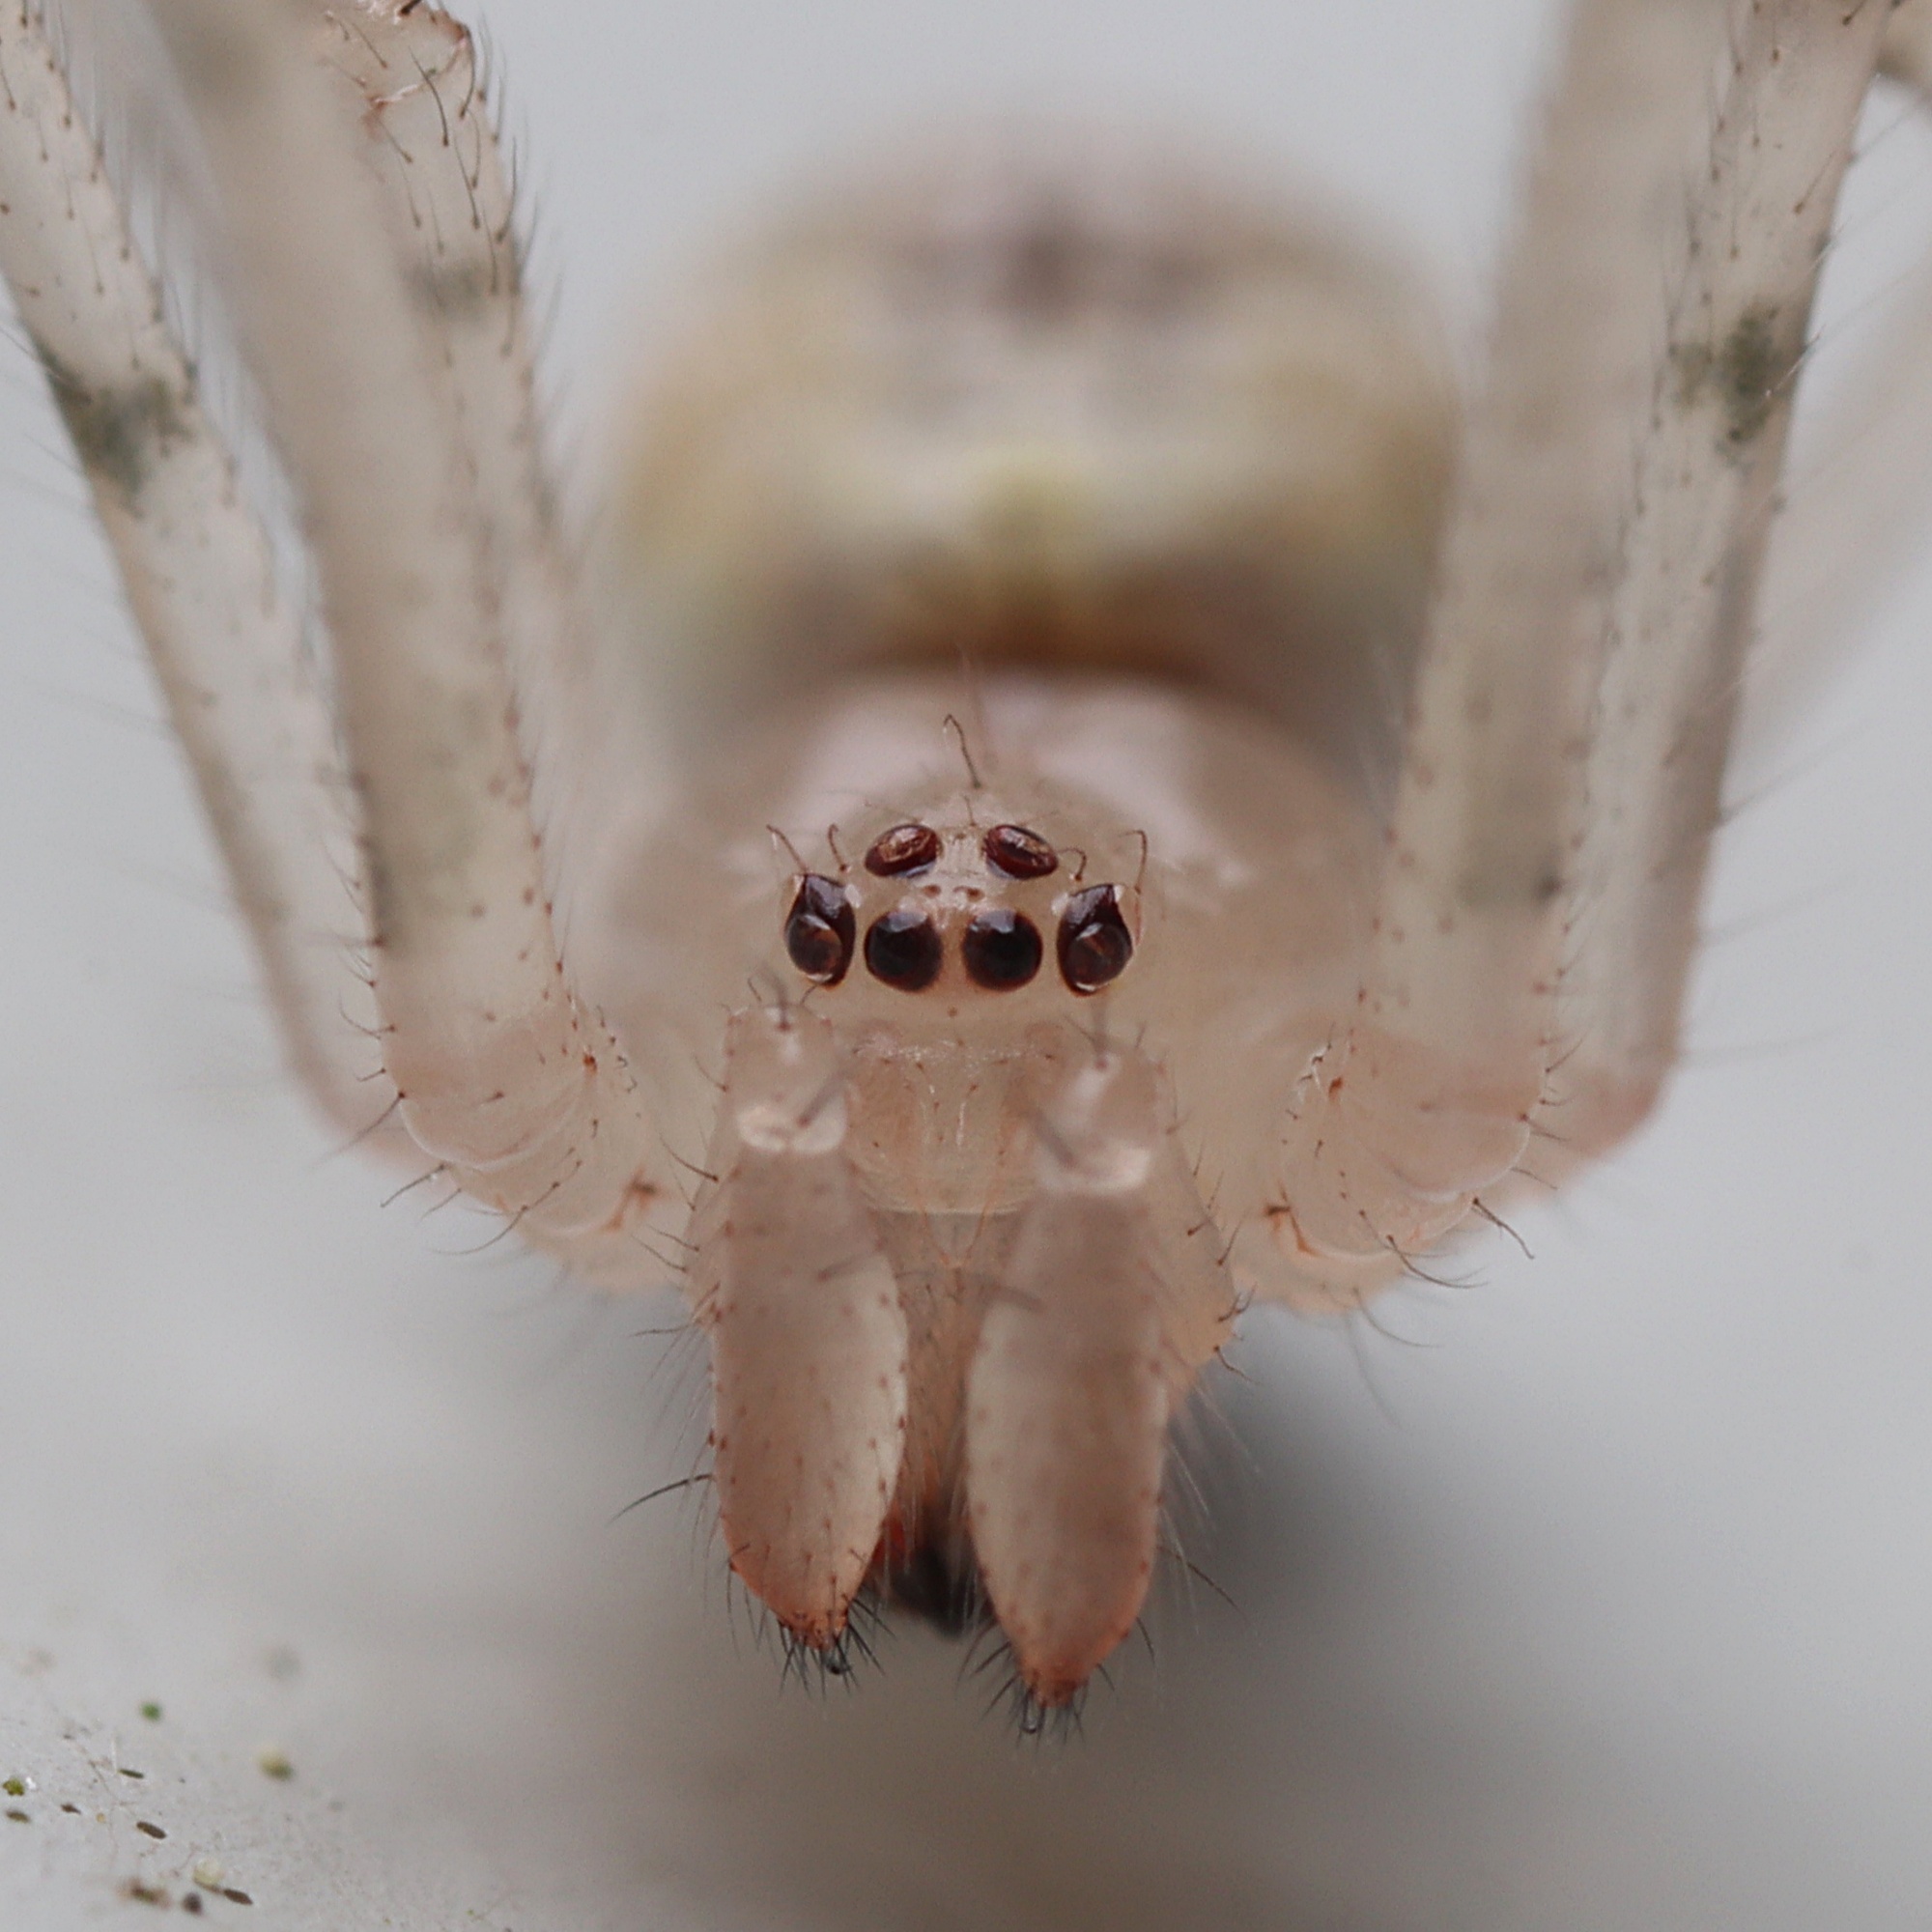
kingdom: Animalia
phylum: Arthropoda
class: Arachnida
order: Araneae
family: Theridiidae
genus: Cryptachaea
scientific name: Cryptachaea gigantipes
